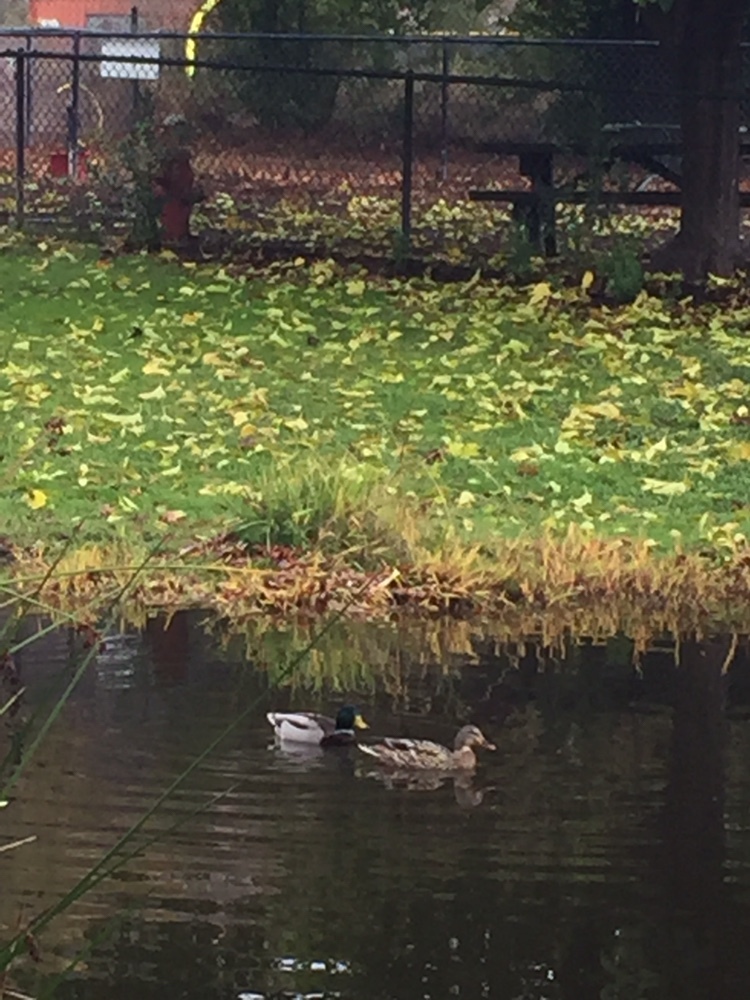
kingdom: Animalia
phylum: Chordata
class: Aves
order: Anseriformes
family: Anatidae
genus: Anas
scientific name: Anas platyrhynchos
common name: Mallard
